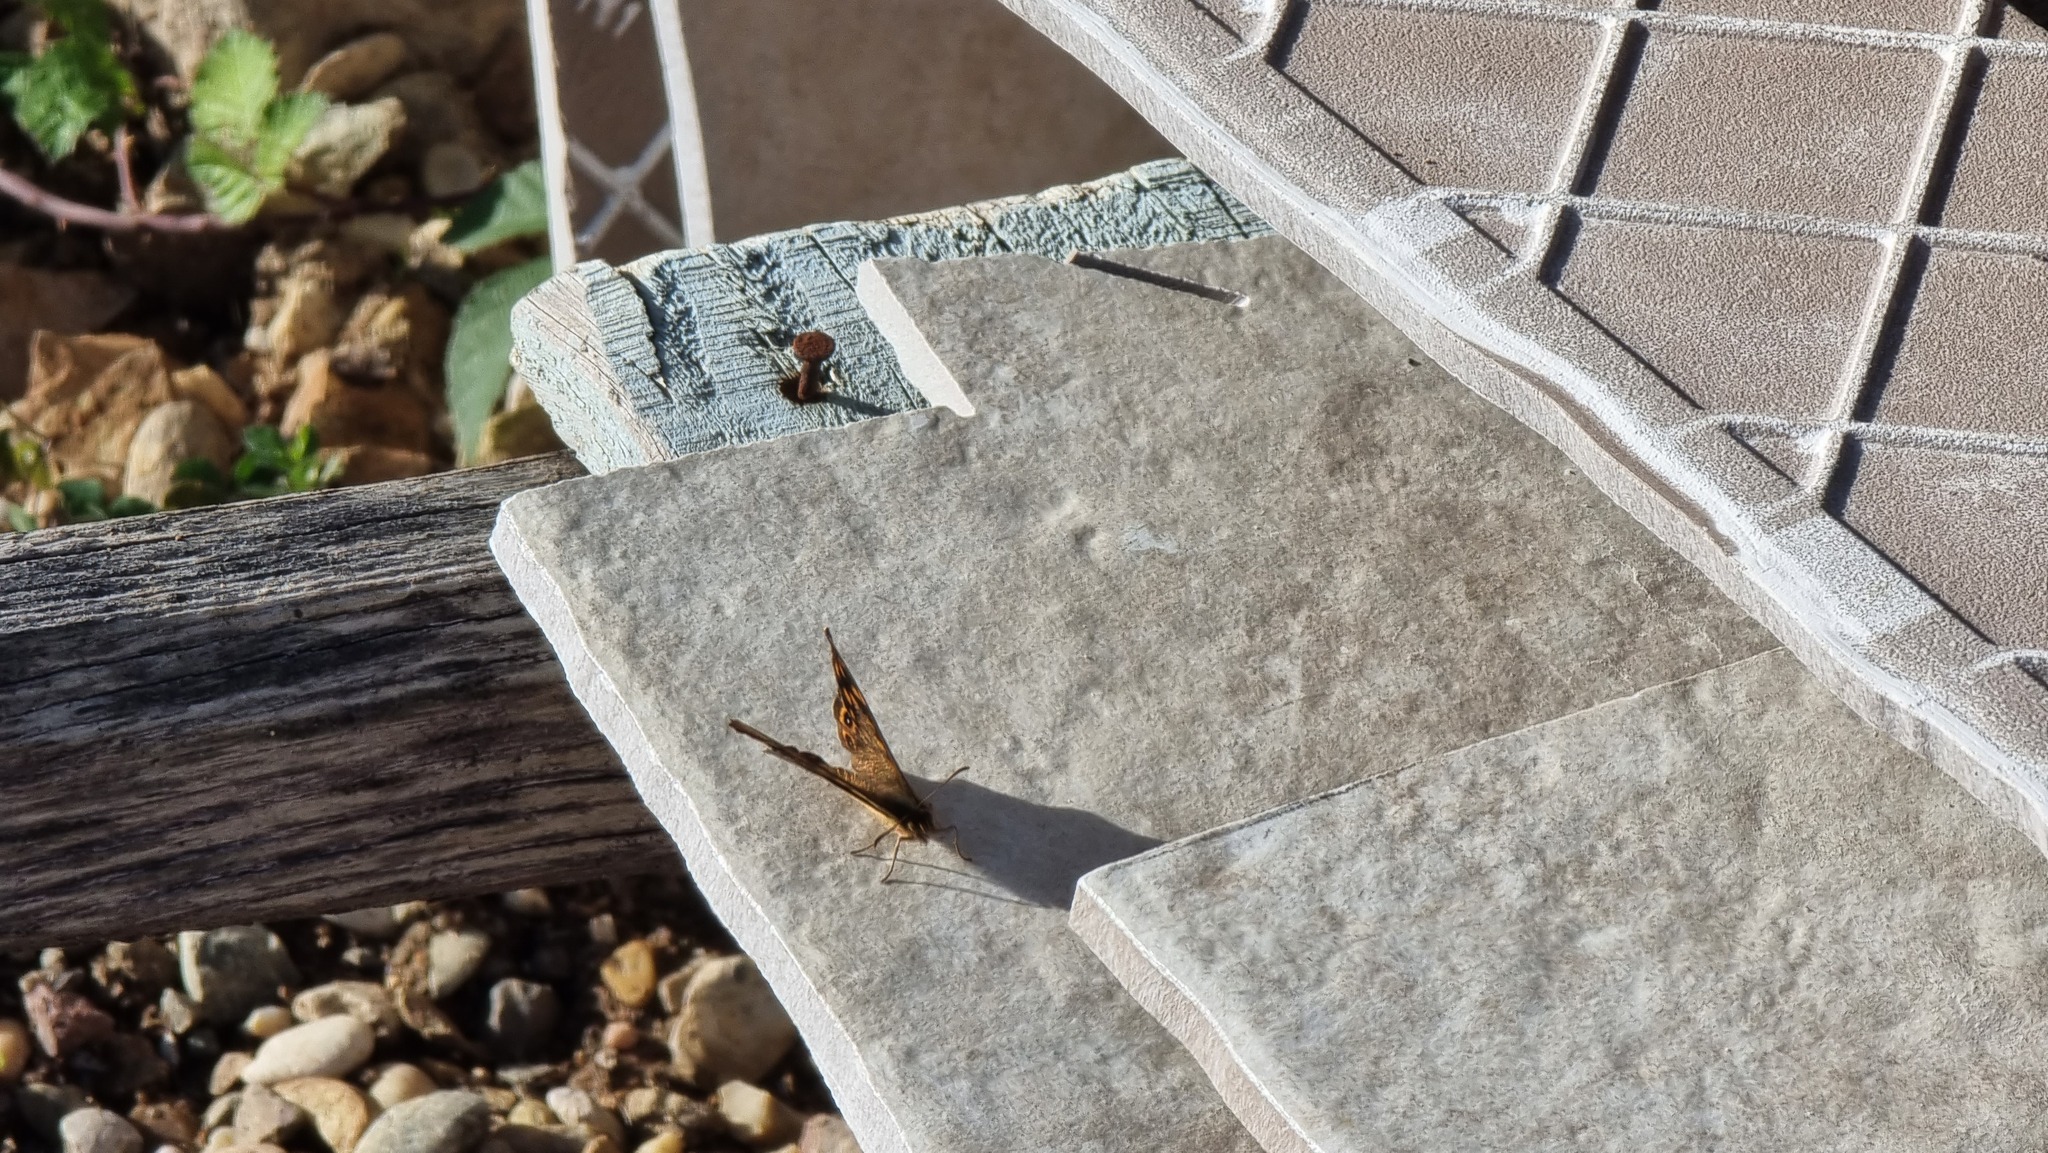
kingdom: Animalia
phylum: Arthropoda
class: Insecta
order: Lepidoptera
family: Nymphalidae
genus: Pararge
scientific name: Pararge aegeria
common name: Speckled wood
